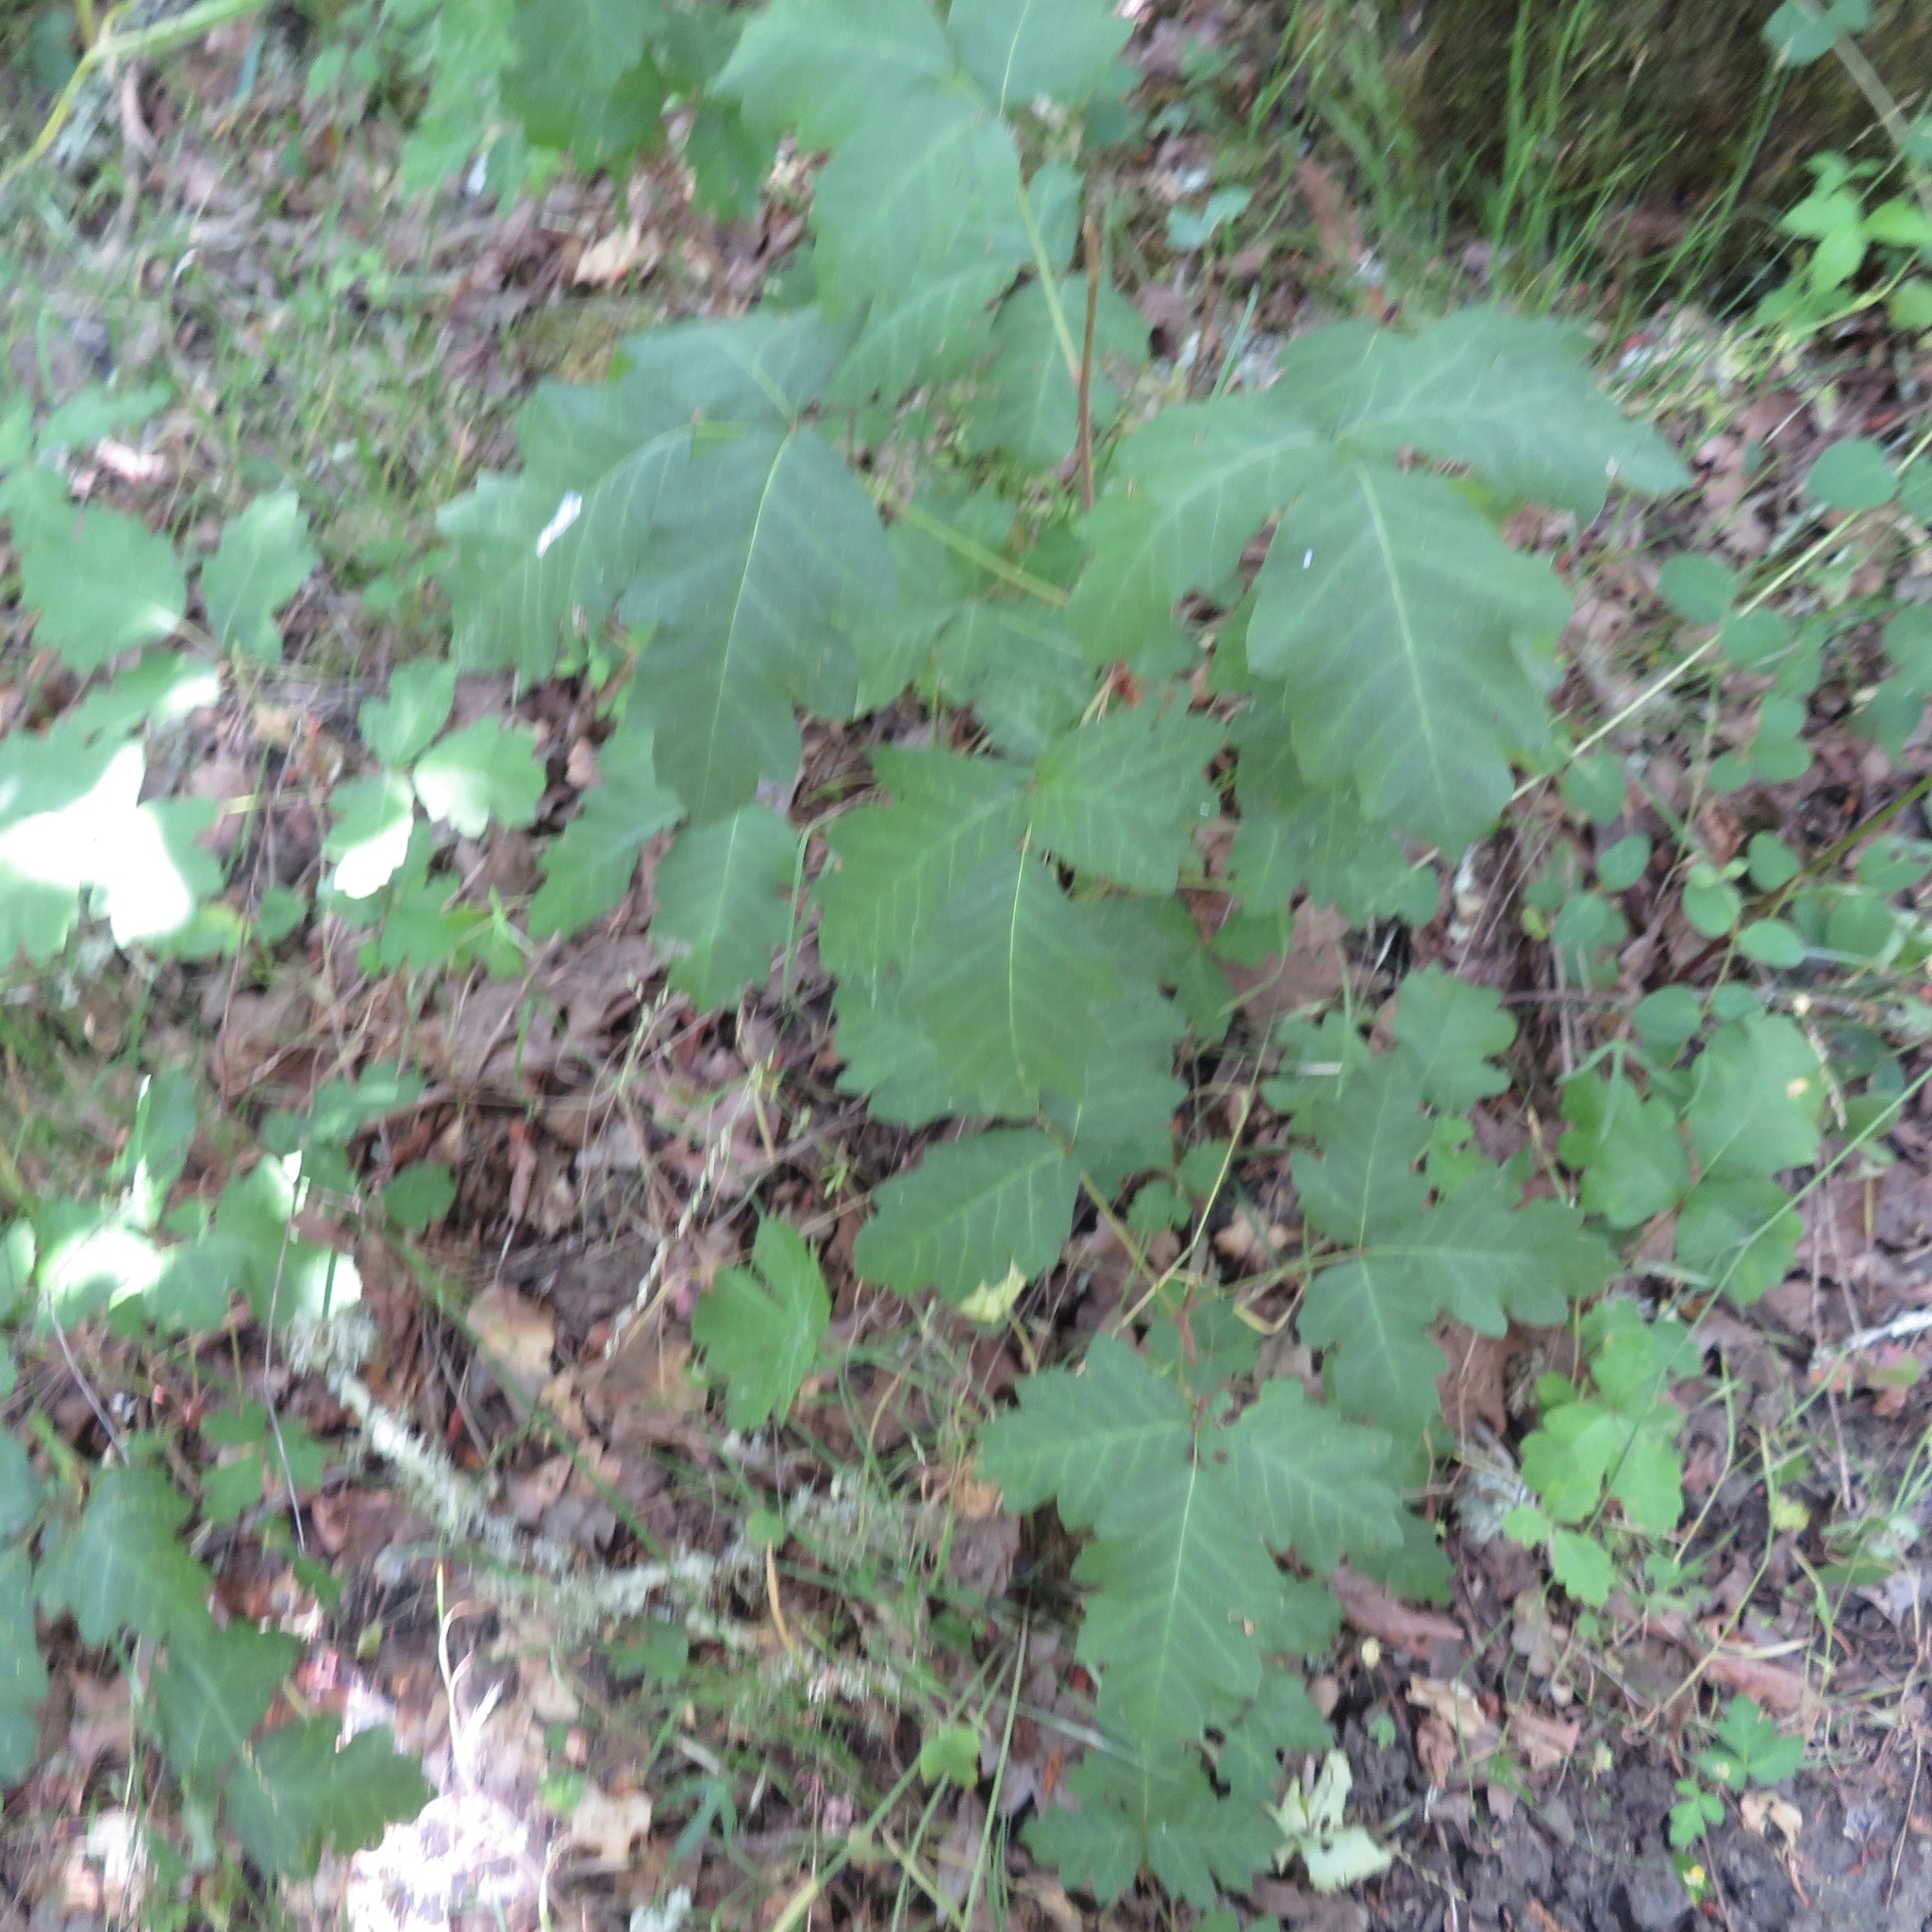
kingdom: Plantae
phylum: Tracheophyta
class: Magnoliopsida
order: Sapindales
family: Anacardiaceae
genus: Toxicodendron
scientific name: Toxicodendron diversilobum
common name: Pacific poison-oak
